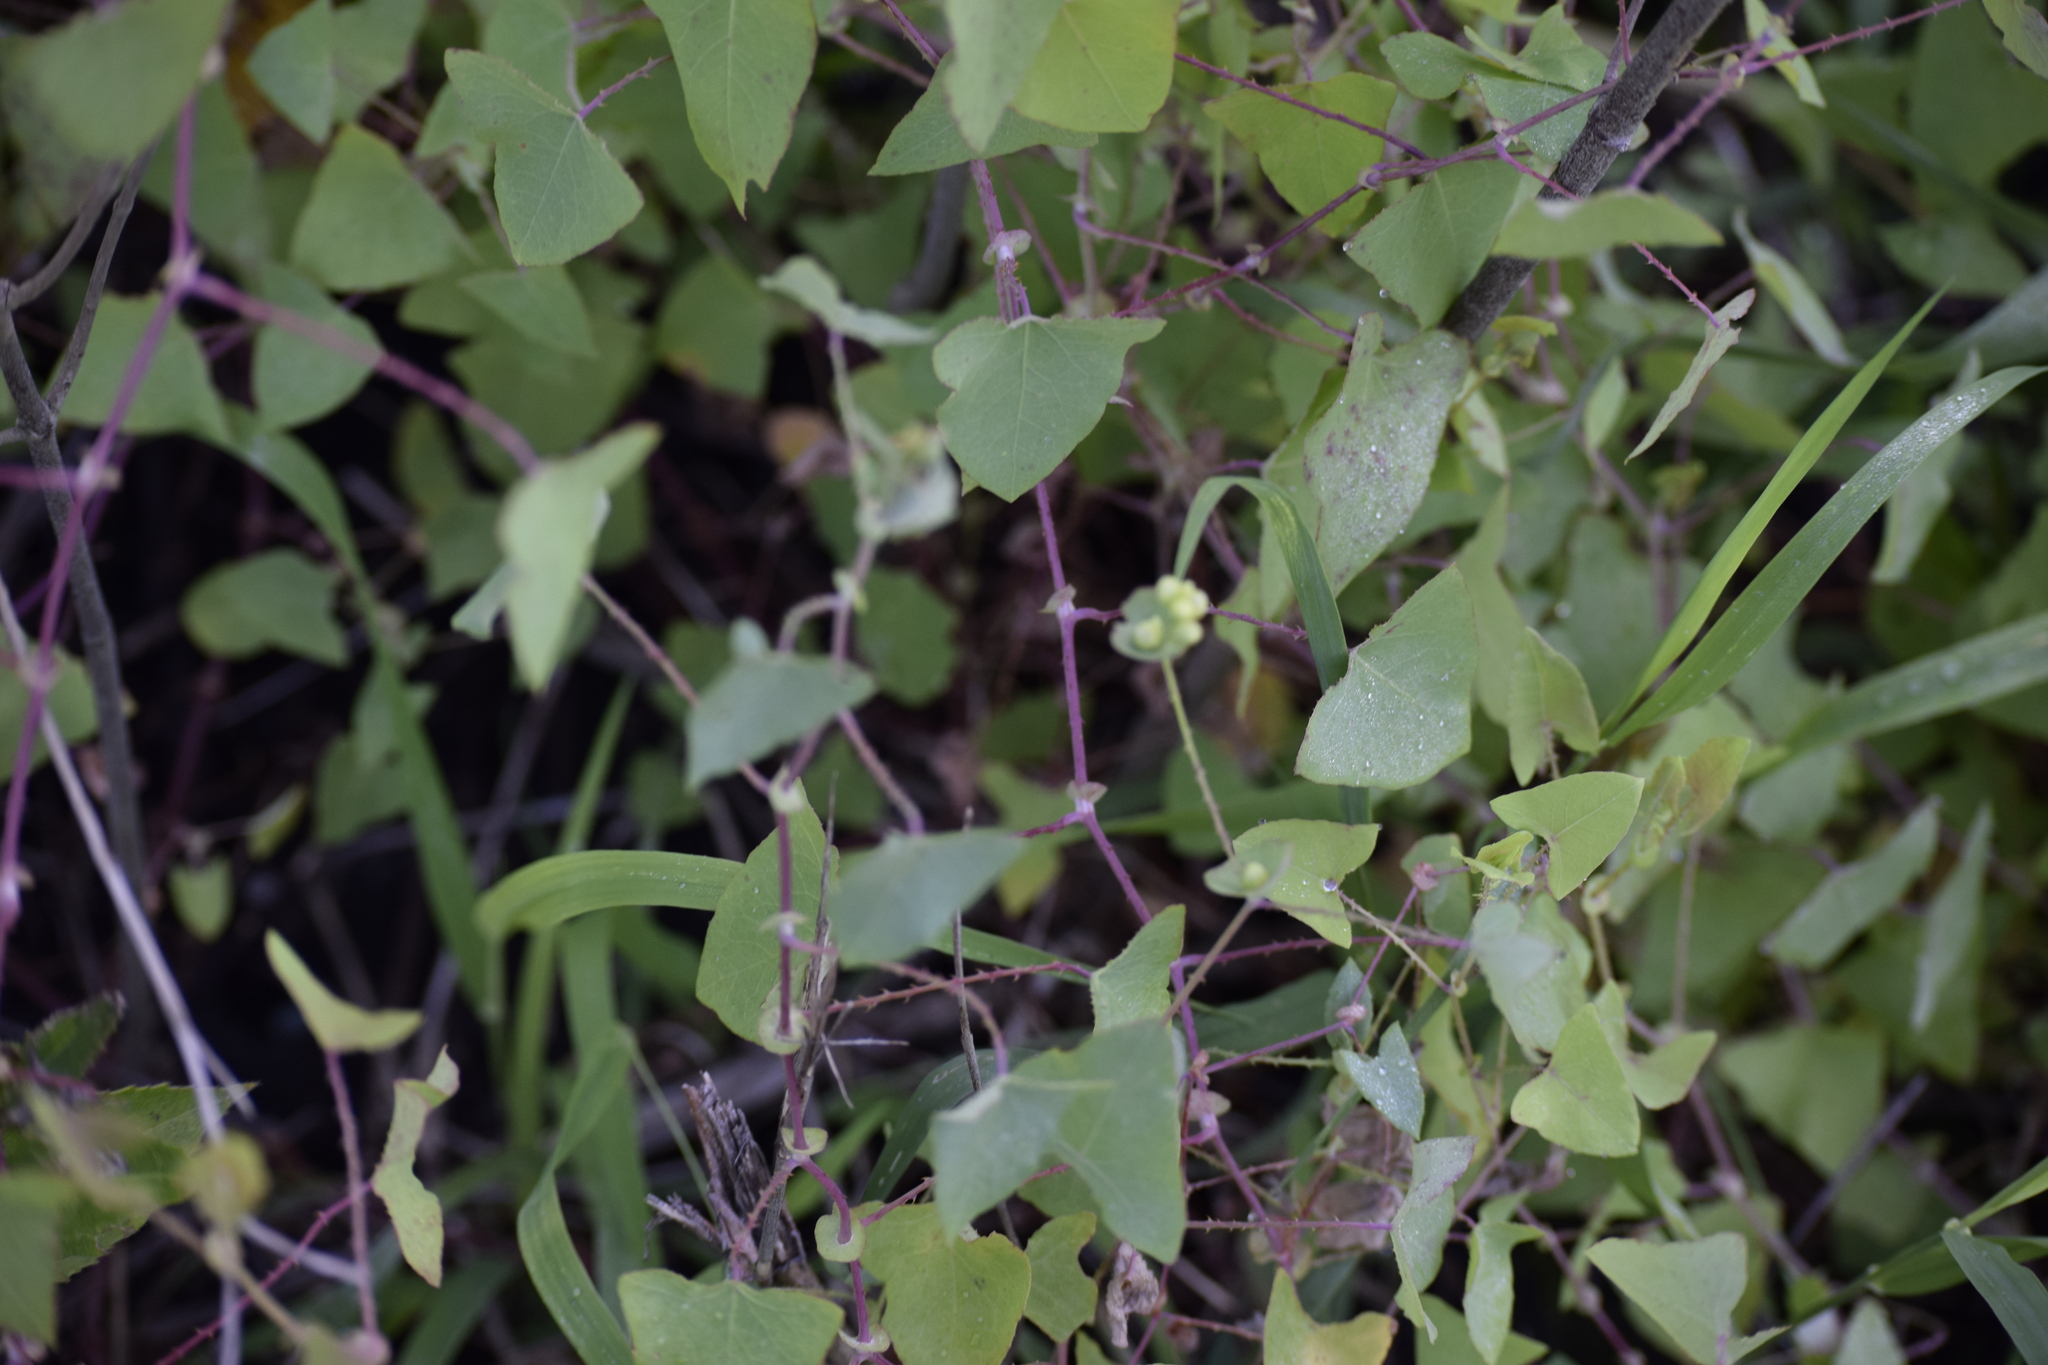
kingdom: Plantae
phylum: Tracheophyta
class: Magnoliopsida
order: Caryophyllales
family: Polygonaceae
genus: Persicaria
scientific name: Persicaria perfoliata
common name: Asiatic tearthumb
